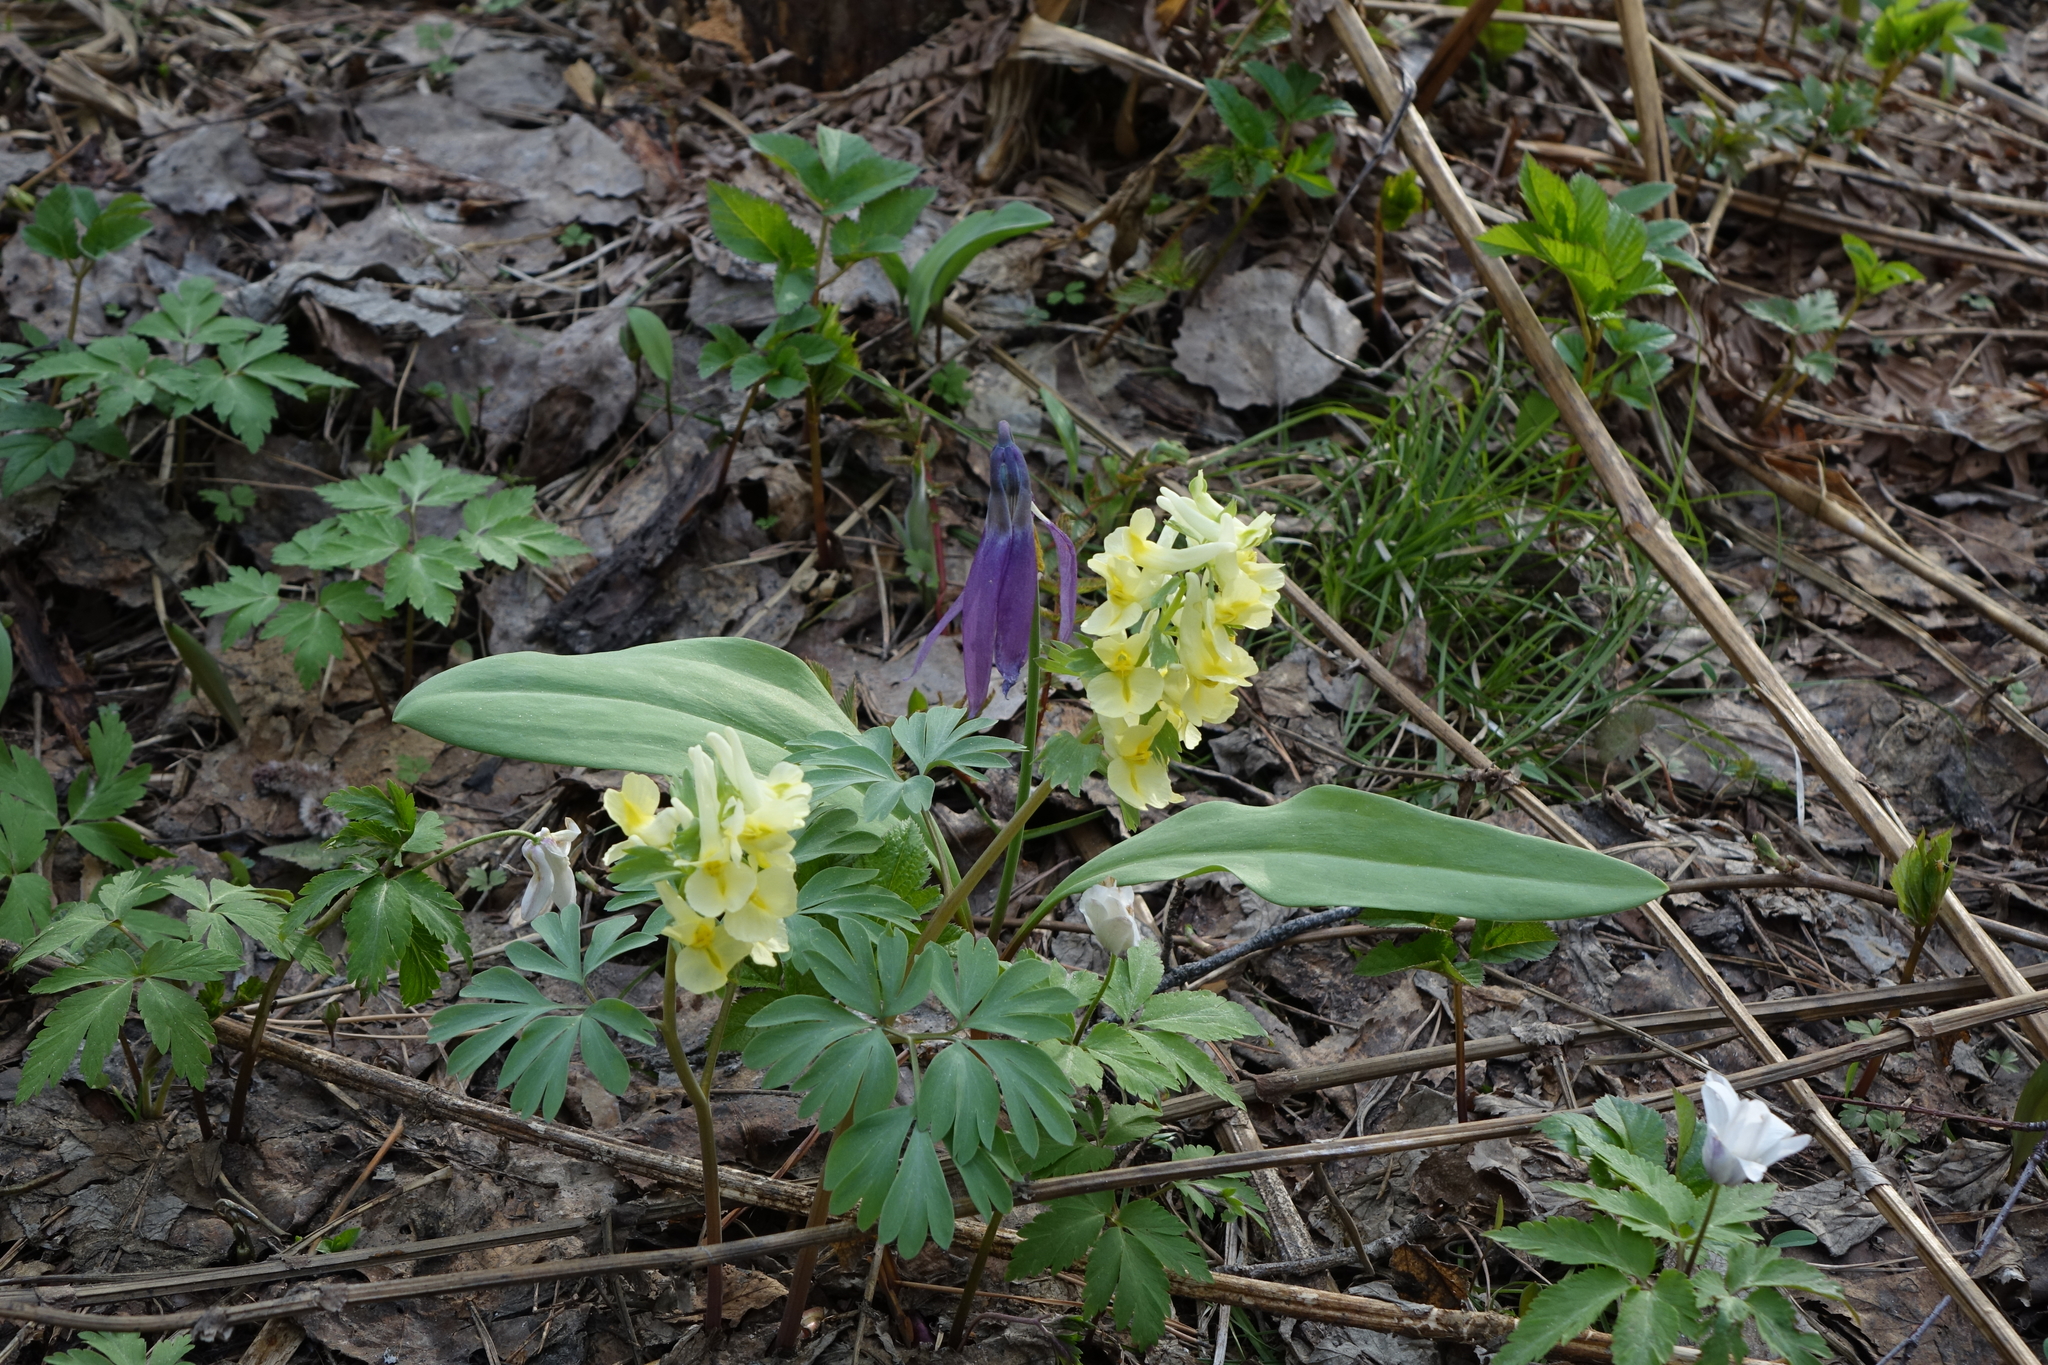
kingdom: Plantae
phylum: Tracheophyta
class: Magnoliopsida
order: Ranunculales
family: Papaveraceae
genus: Corydalis
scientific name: Corydalis bracteata
